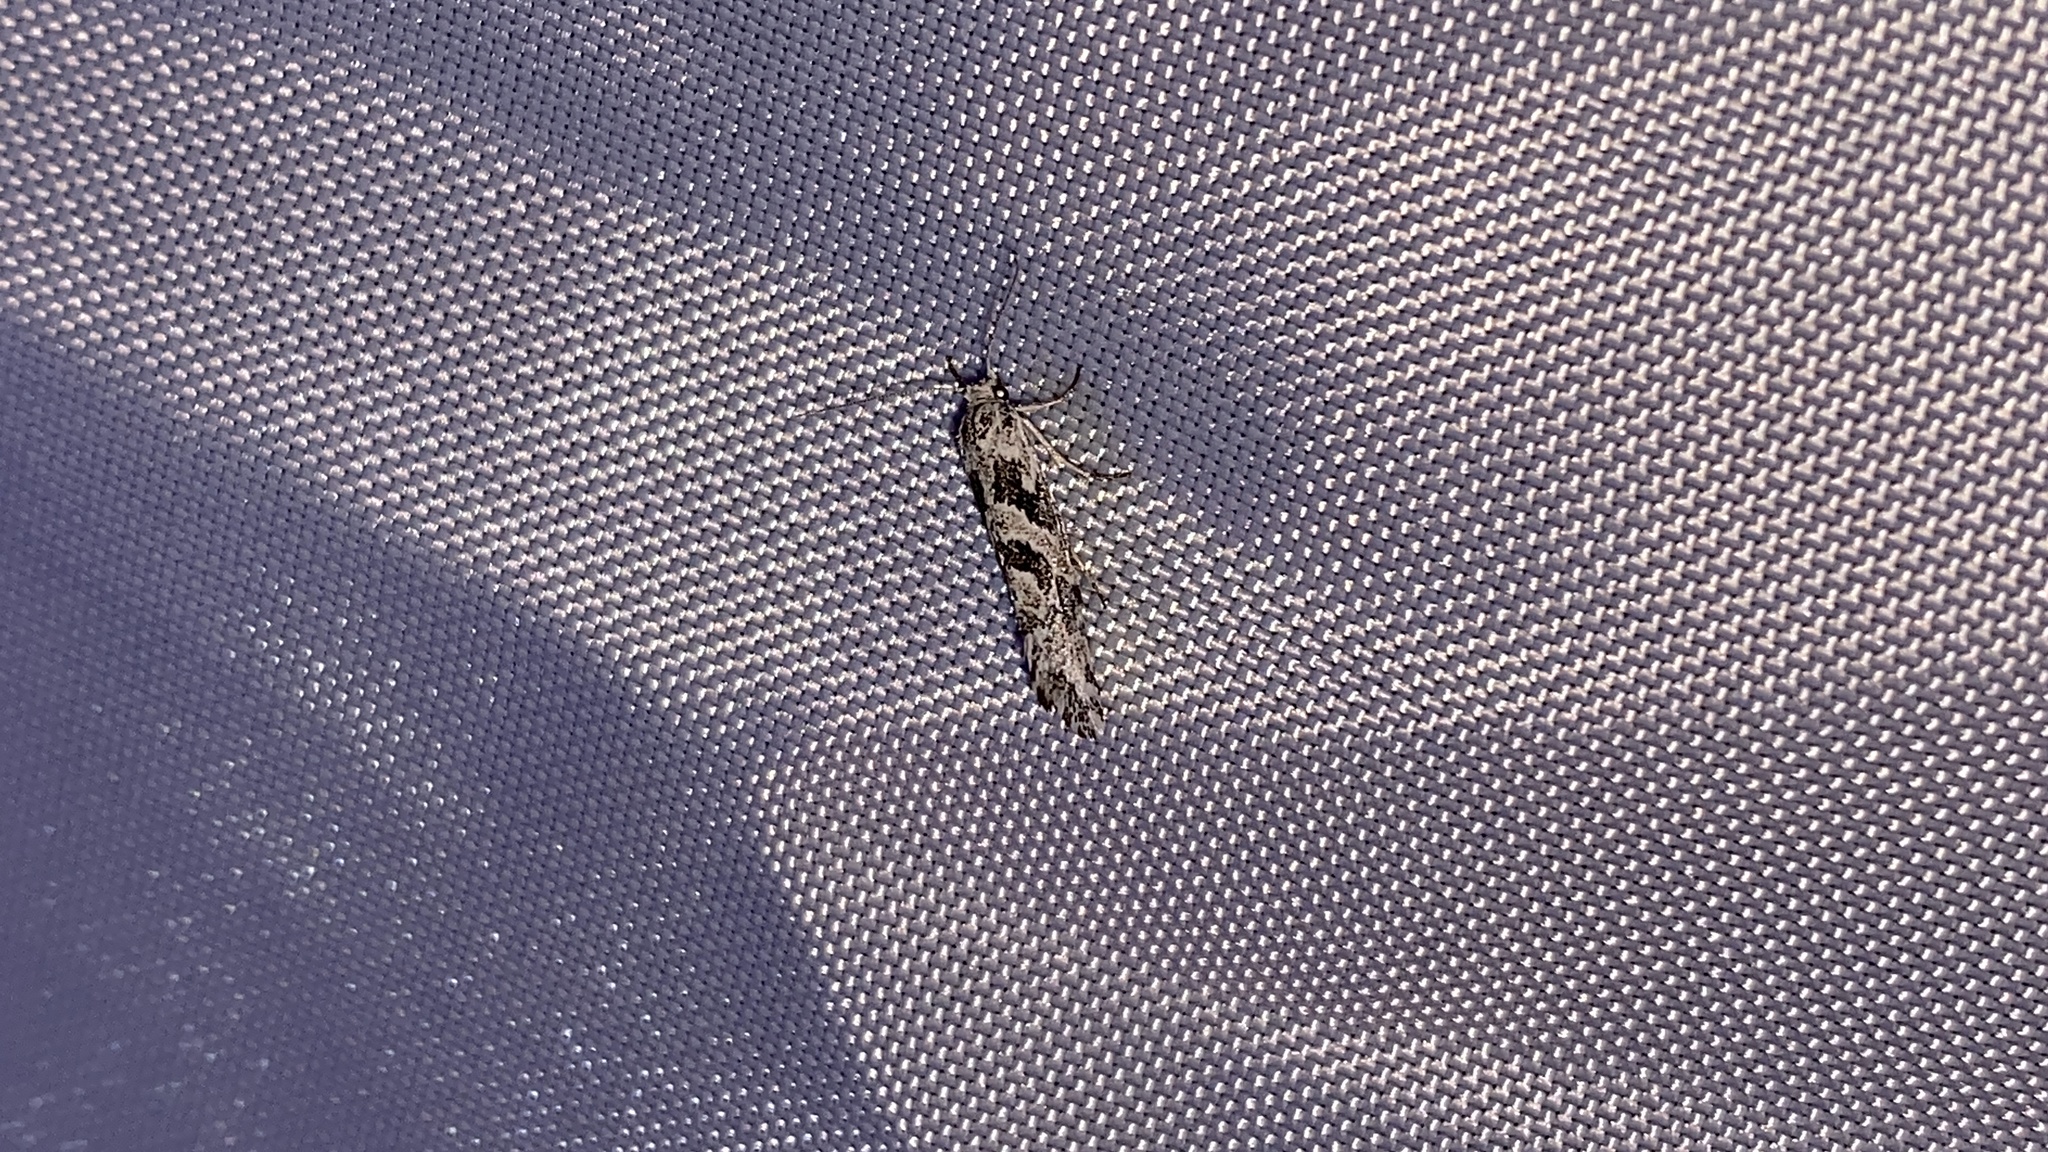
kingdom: Animalia
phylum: Arthropoda
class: Insecta
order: Lepidoptera
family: Plutellidae
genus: Araeolepia
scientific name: Araeolepia subfasciella
